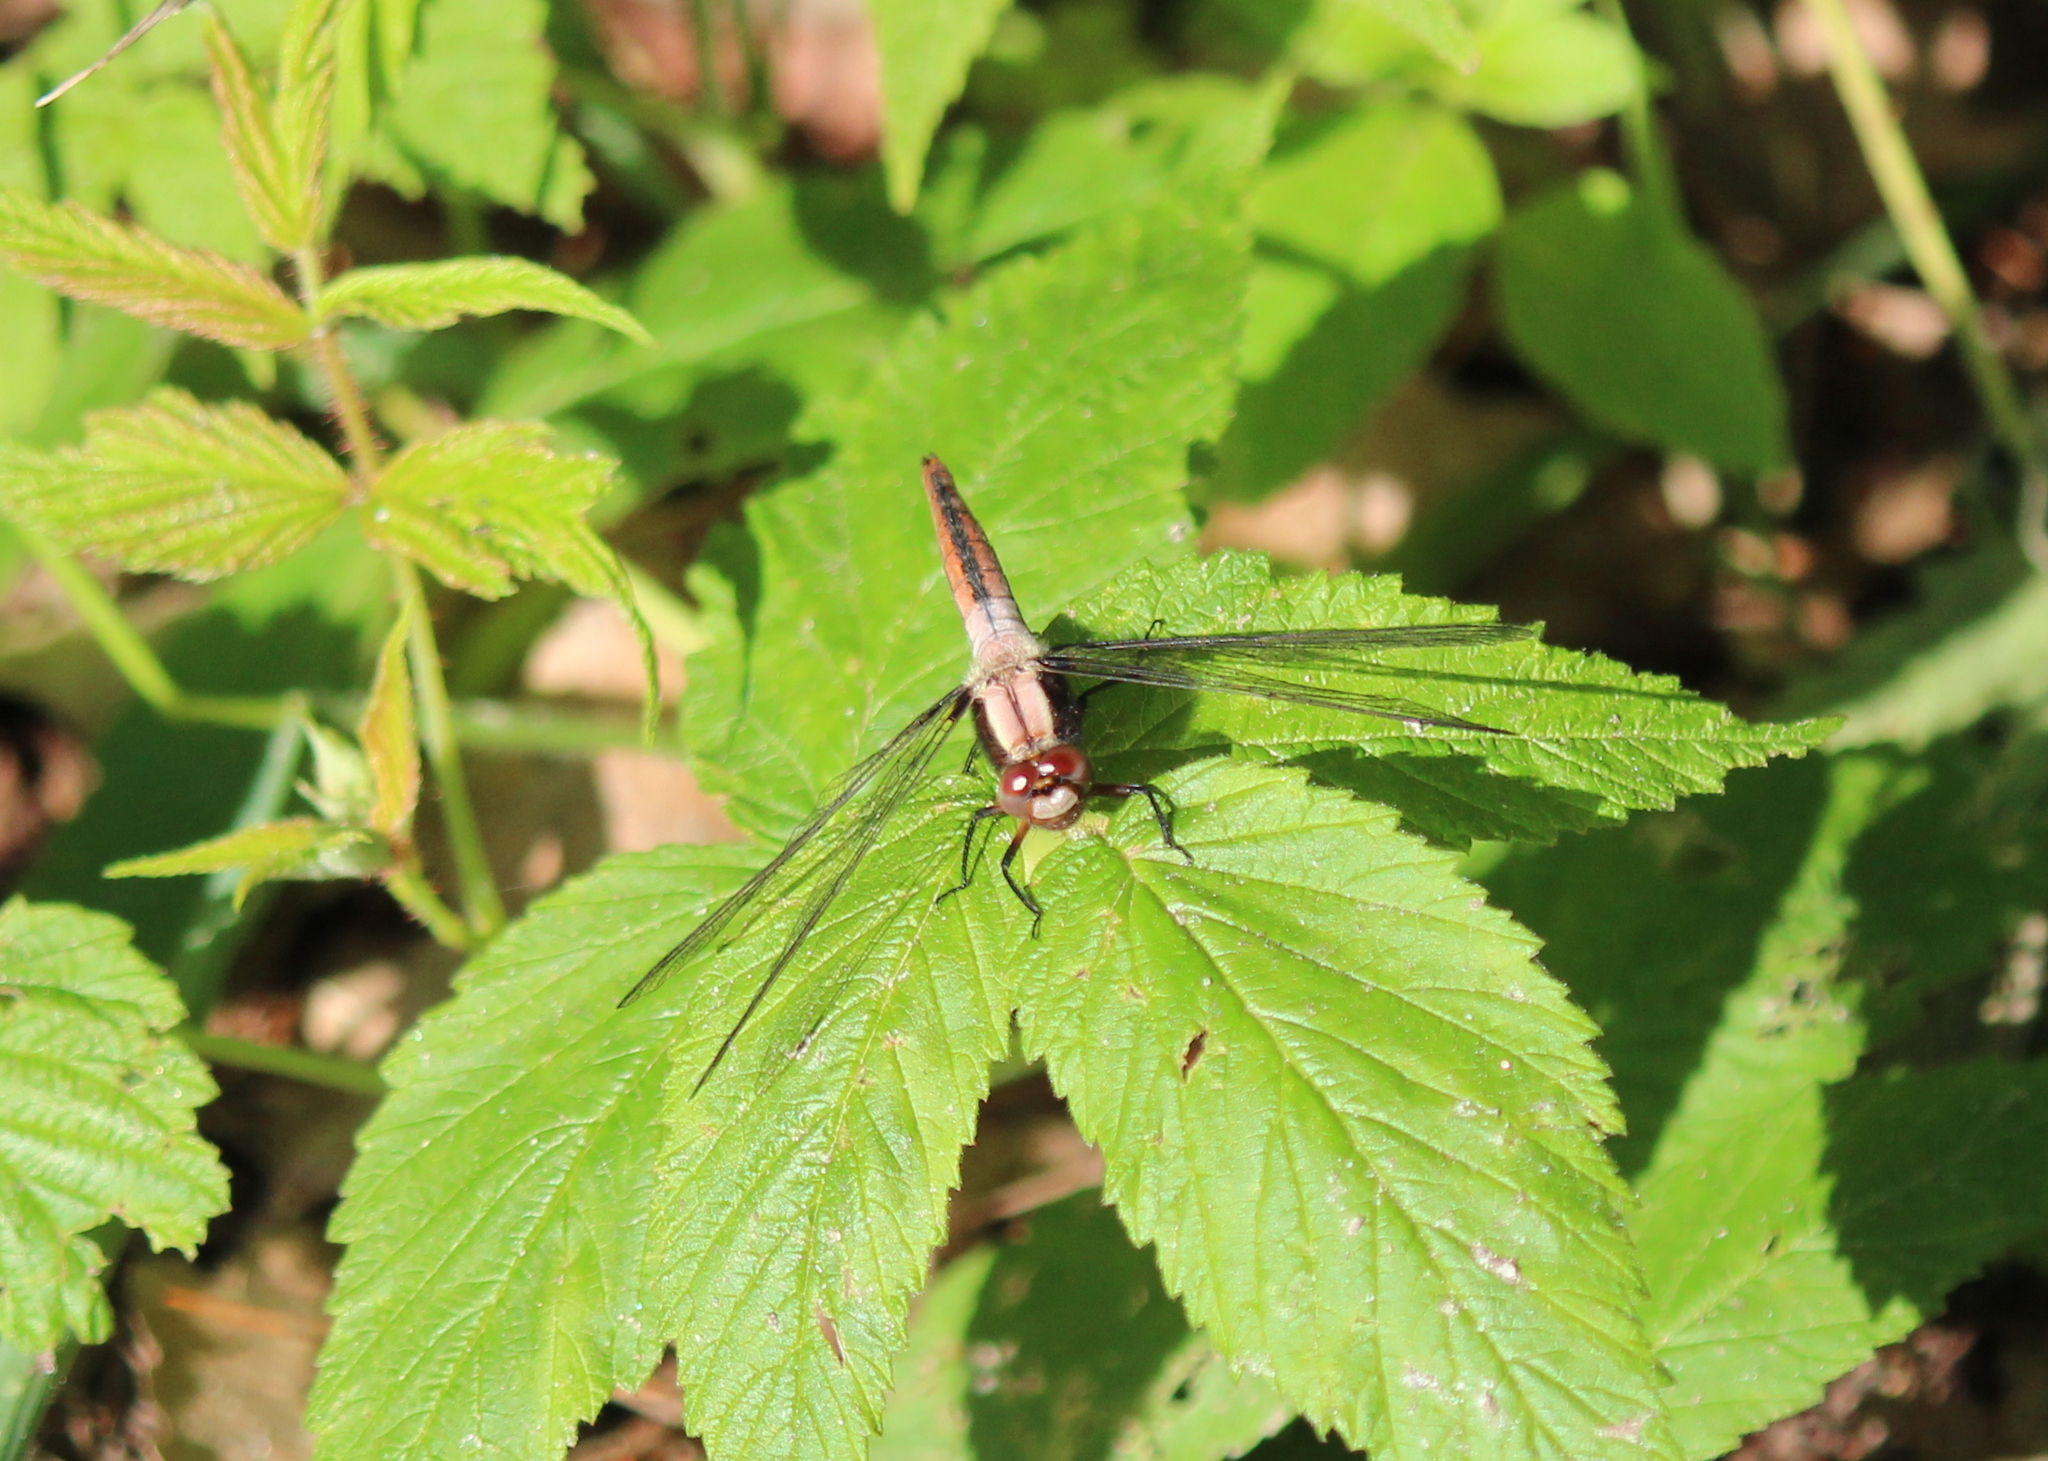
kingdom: Animalia
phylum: Arthropoda
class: Insecta
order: Odonata
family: Libellulidae
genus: Ladona
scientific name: Ladona julia
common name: Chalk-fronted corporal
